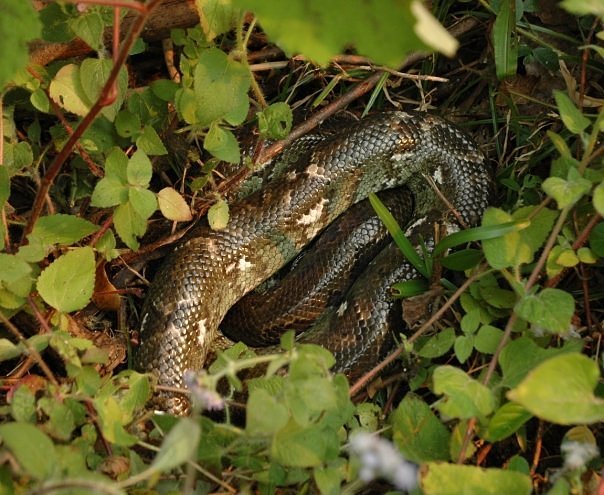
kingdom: Animalia
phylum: Chordata
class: Squamata
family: Boidae
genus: Sanzinia
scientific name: Sanzinia madagascariensis
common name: Madagascar tree boa
